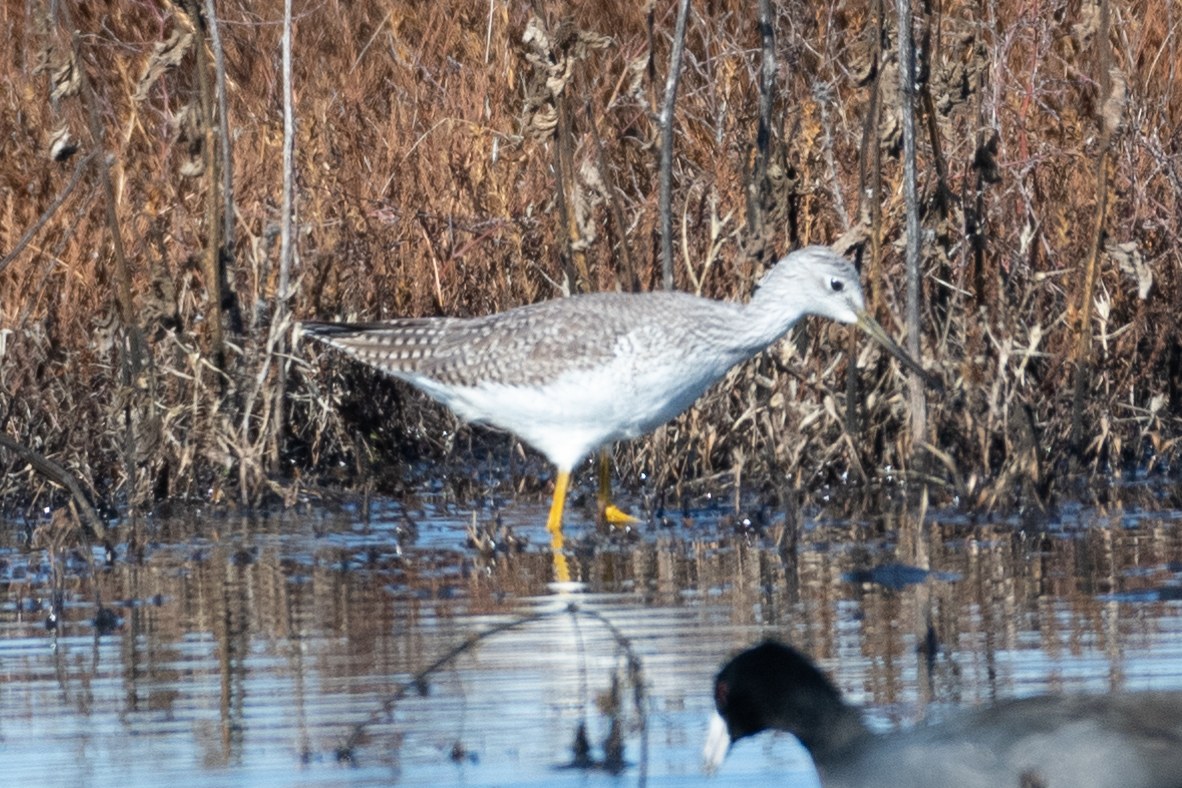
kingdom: Animalia
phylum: Chordata
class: Aves
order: Charadriiformes
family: Scolopacidae
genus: Tringa
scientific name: Tringa melanoleuca
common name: Greater yellowlegs
